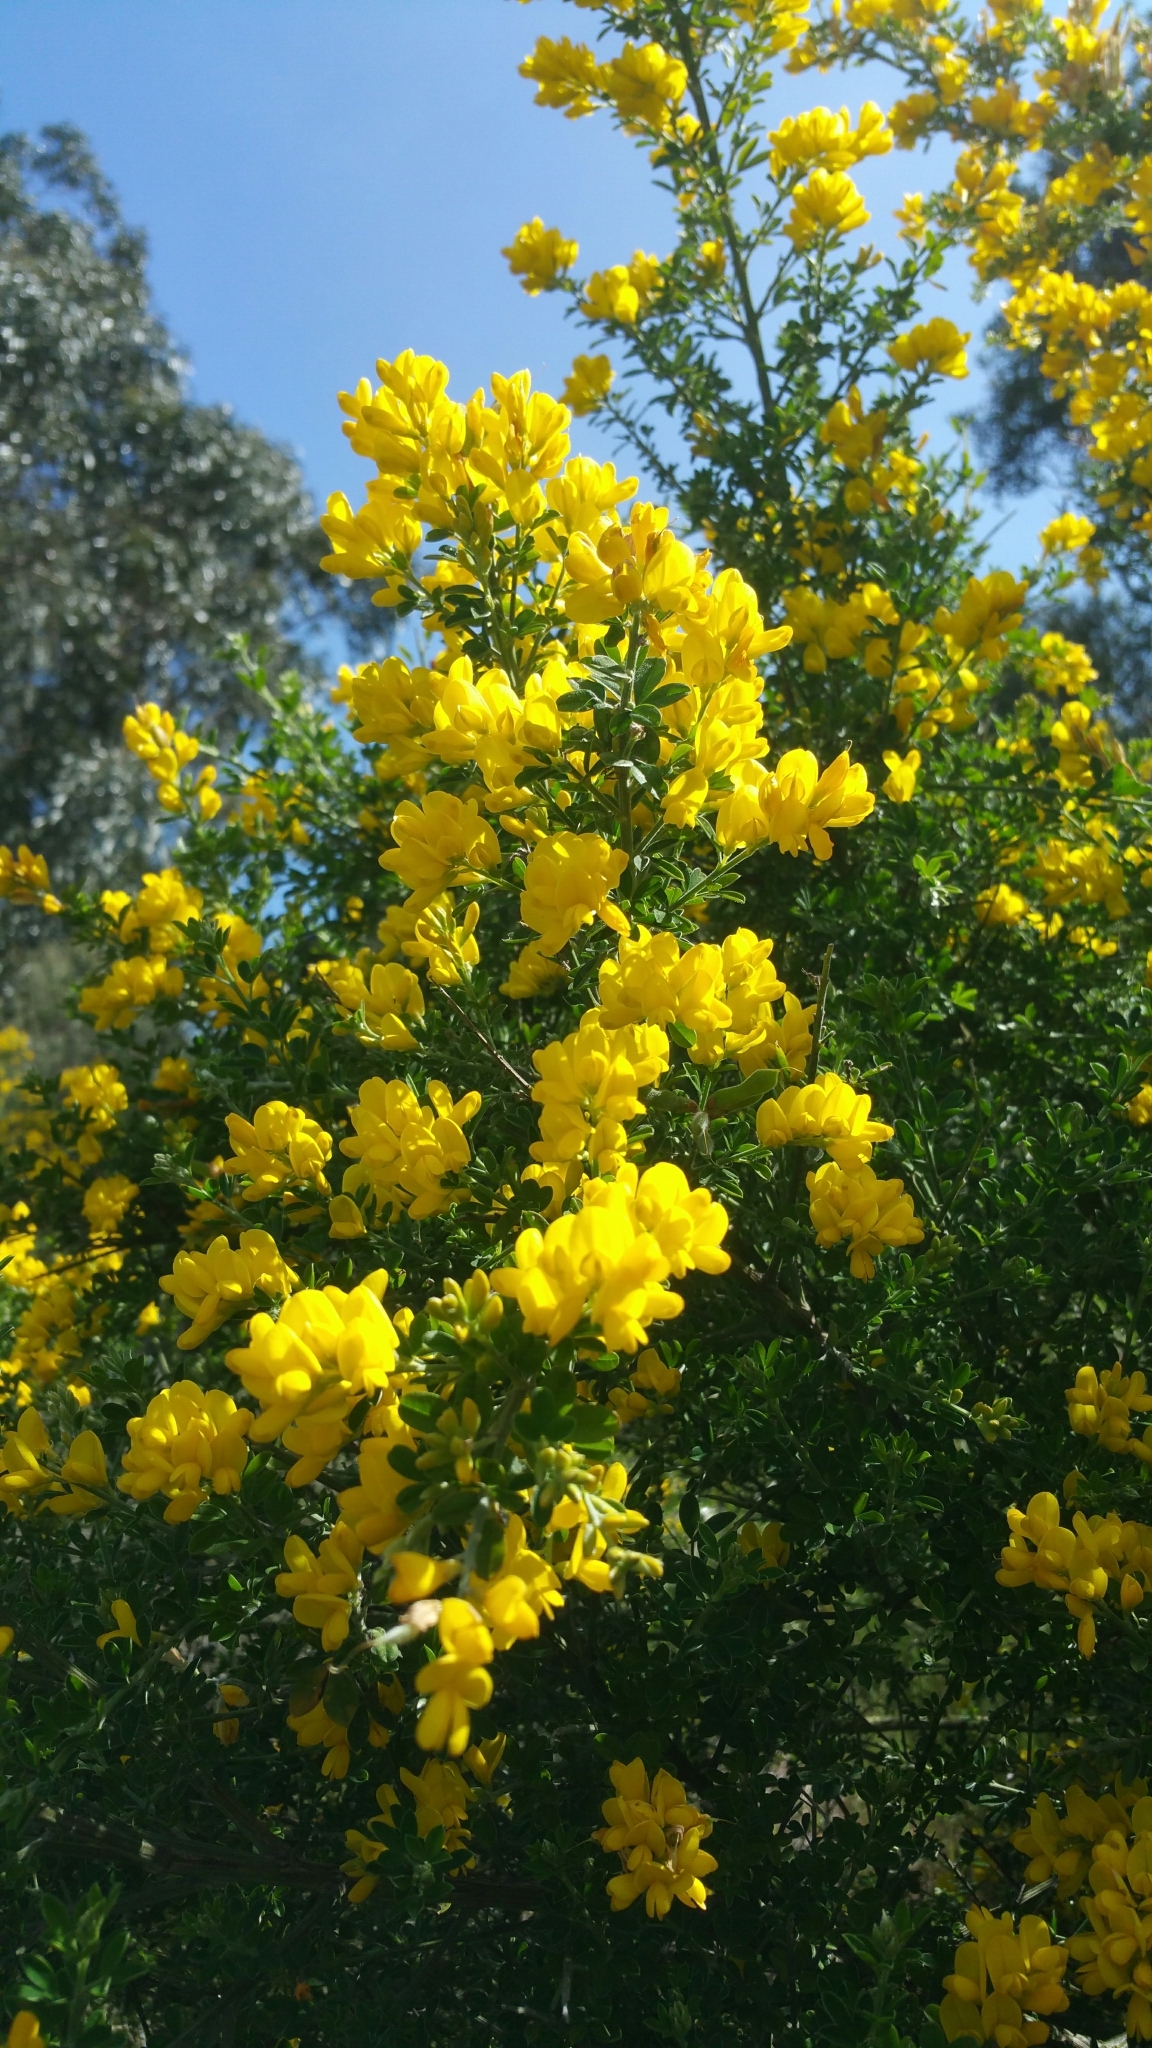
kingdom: Plantae
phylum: Tracheophyta
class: Magnoliopsida
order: Fabales
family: Fabaceae
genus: Genista
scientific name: Genista monspessulana
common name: Montpellier broom
